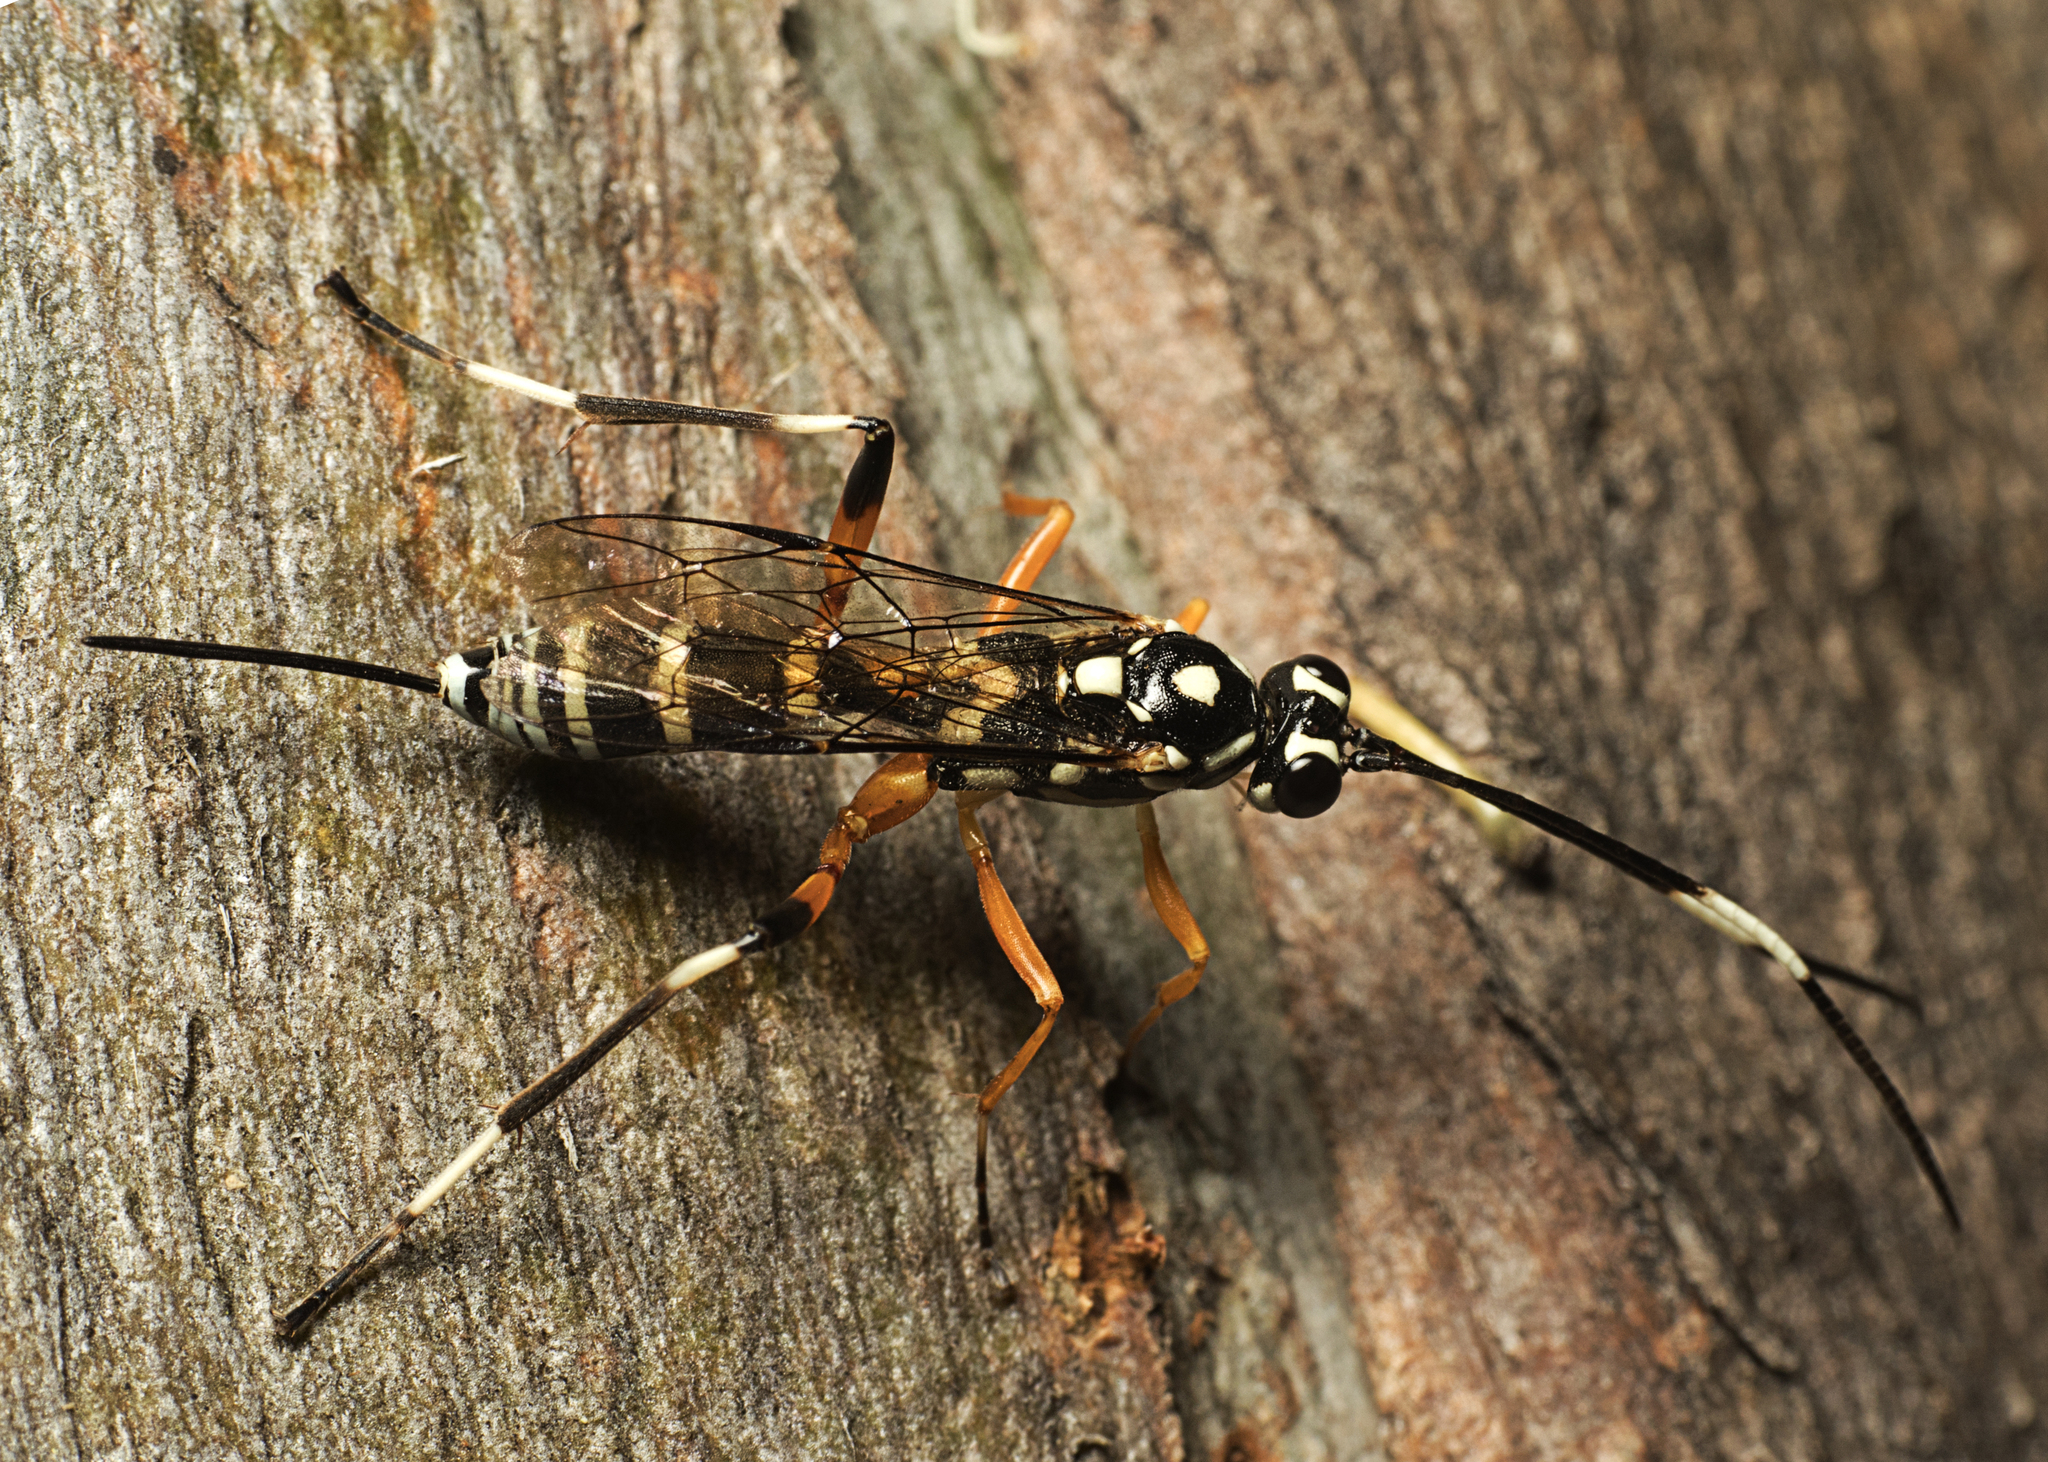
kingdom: Animalia
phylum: Arthropoda
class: Insecta
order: Hymenoptera
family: Ichneumonidae
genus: Xanthocryptus
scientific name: Xanthocryptus novozealandicus
